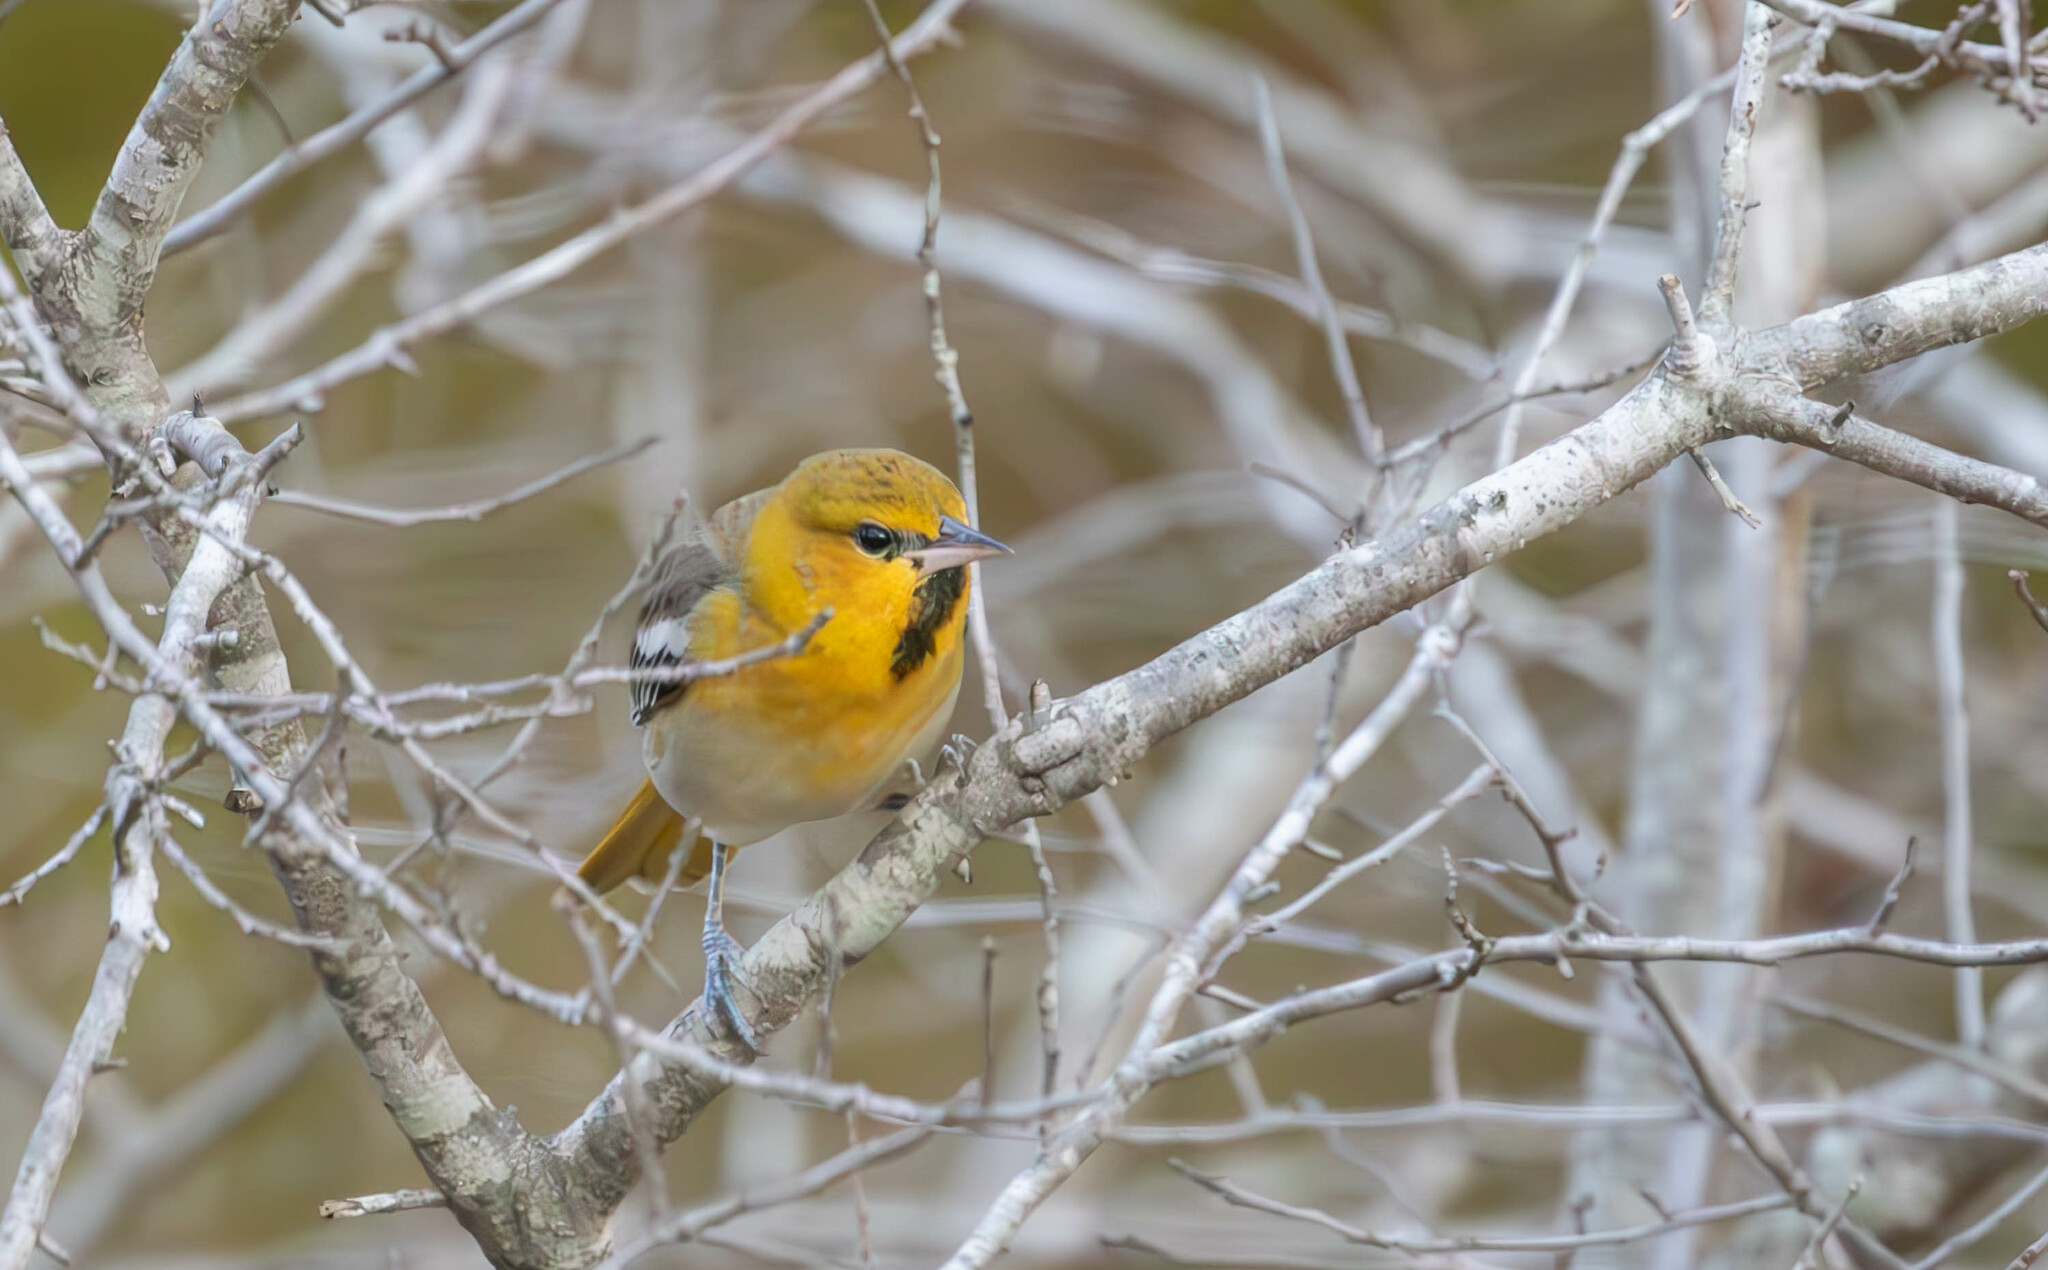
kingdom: Animalia
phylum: Chordata
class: Aves
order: Passeriformes
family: Icteridae
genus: Icterus
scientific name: Icterus bullockii
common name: Bullock's oriole
